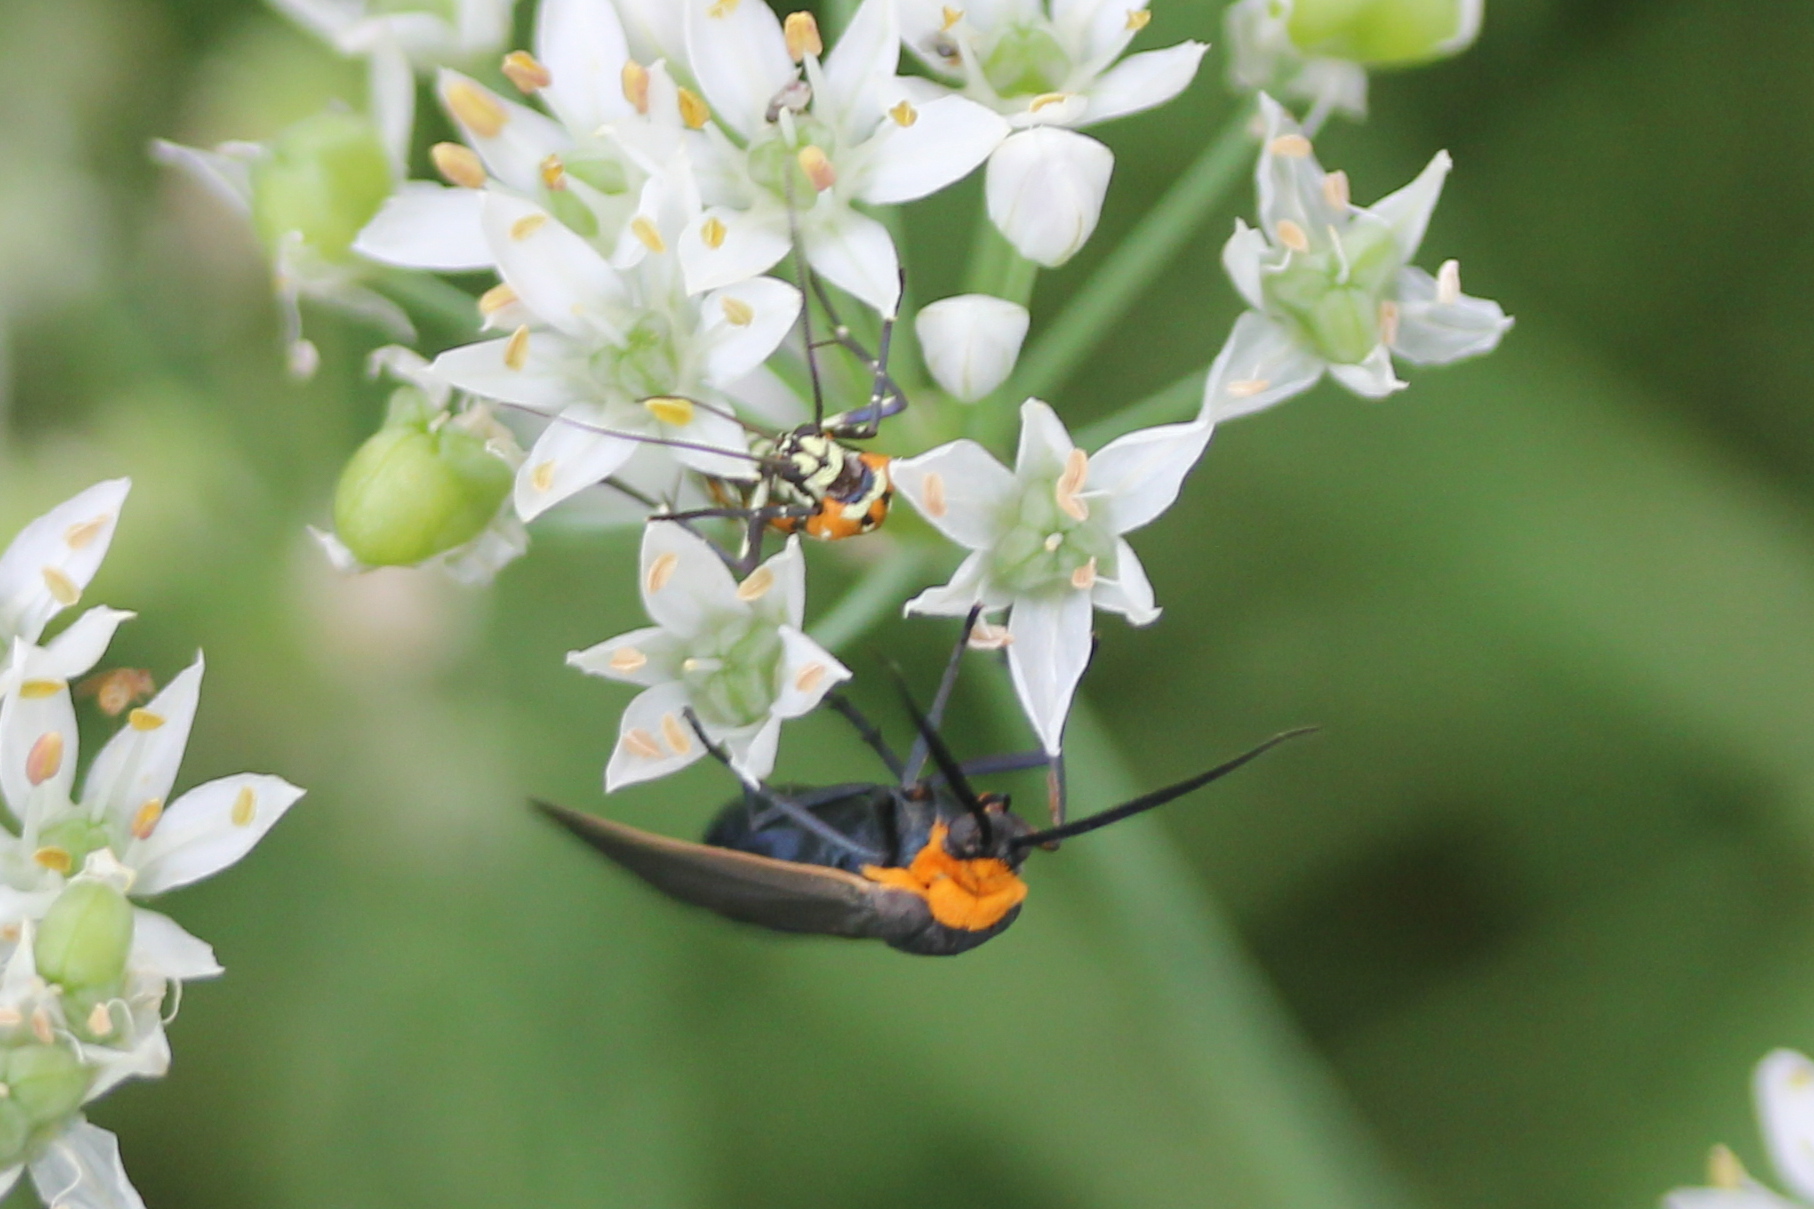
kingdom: Animalia
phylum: Arthropoda
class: Insecta
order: Lepidoptera
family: Erebidae
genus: Cisseps
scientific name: Cisseps fulvicollis
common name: Yellow-collared scape moth
